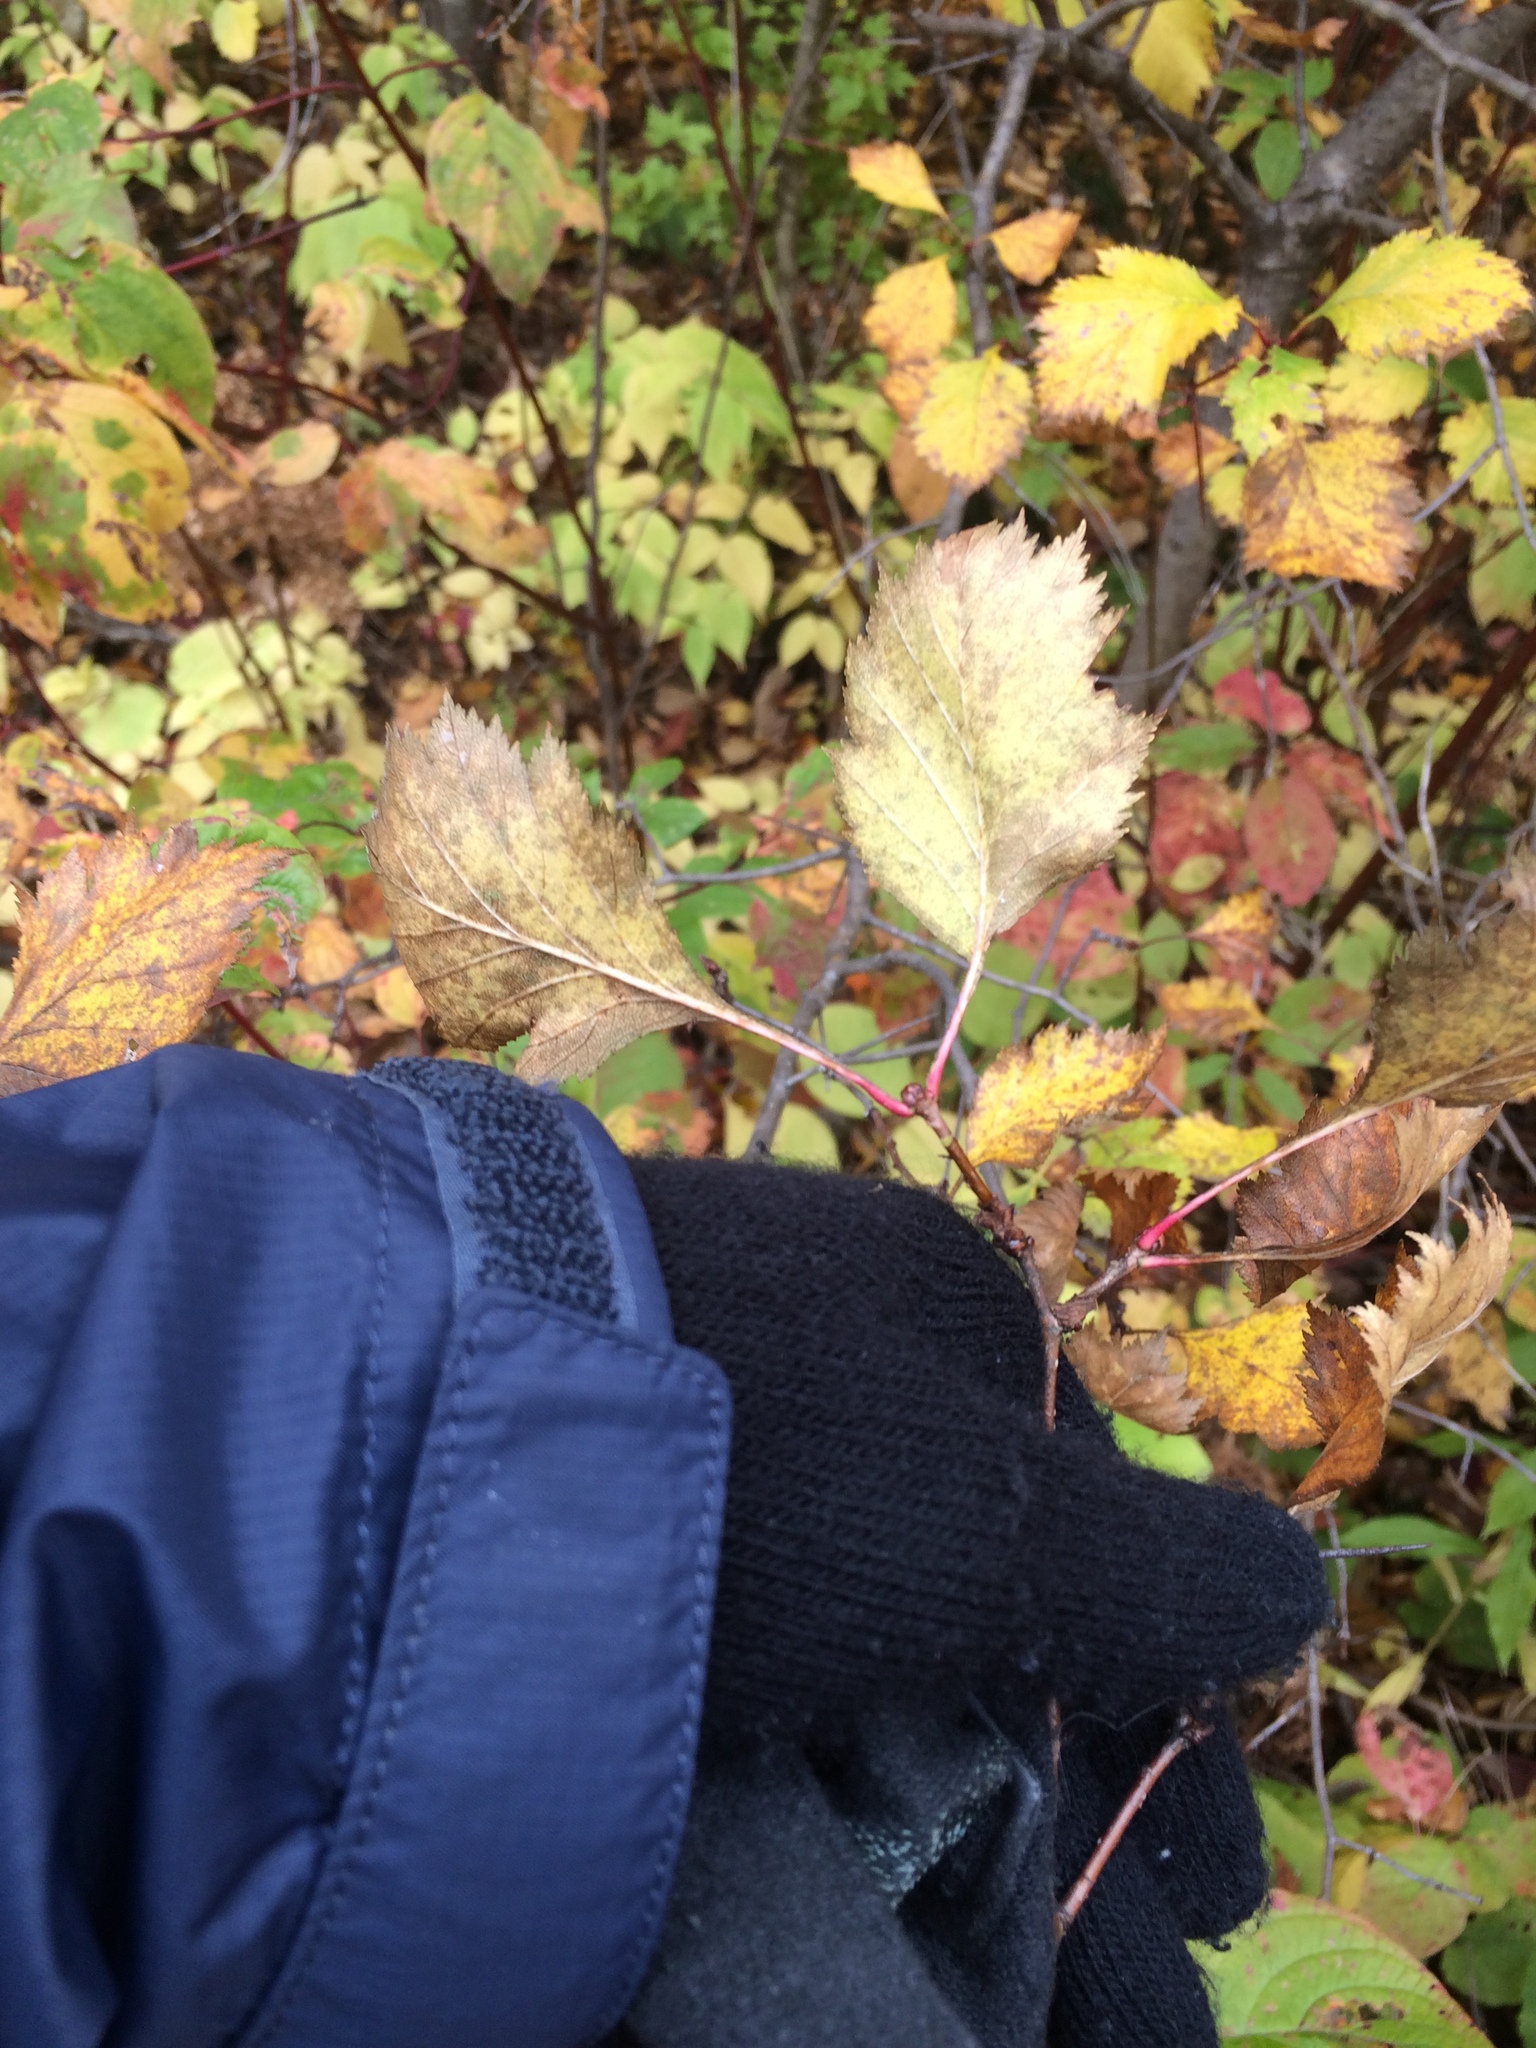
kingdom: Plantae
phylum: Tracheophyta
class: Magnoliopsida
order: Rosales
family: Rosaceae
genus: Crataegus
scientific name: Crataegus chrysocarpa
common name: Fire-berry hawthorn
